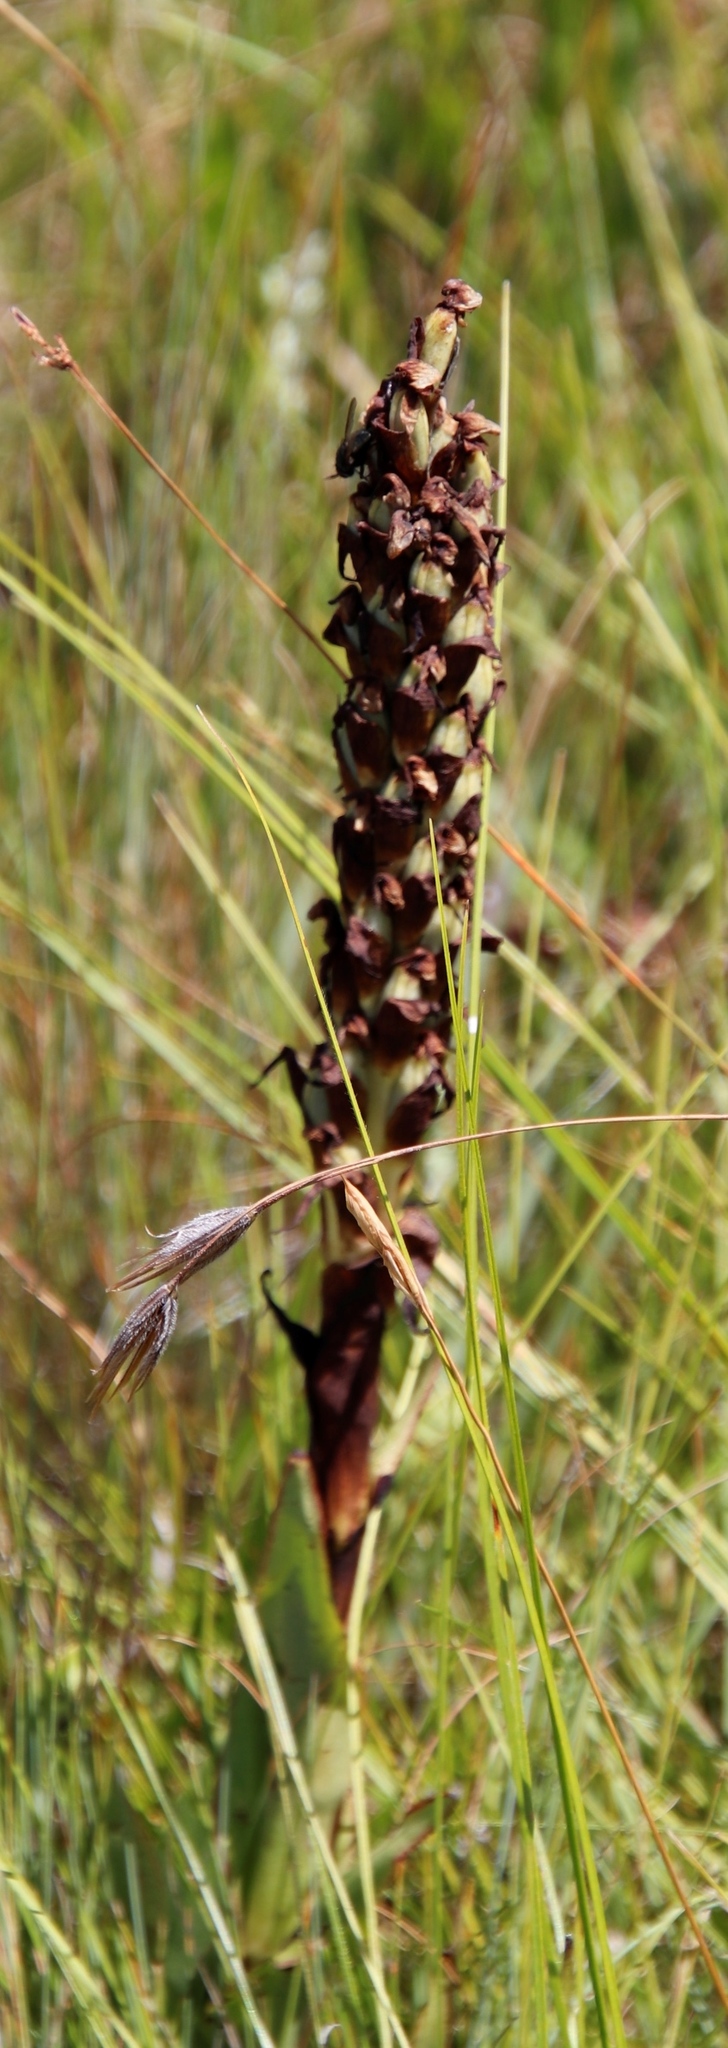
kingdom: Plantae
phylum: Tracheophyta
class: Liliopsida
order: Asparagales
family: Orchidaceae
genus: Disa
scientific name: Disa versicolor
